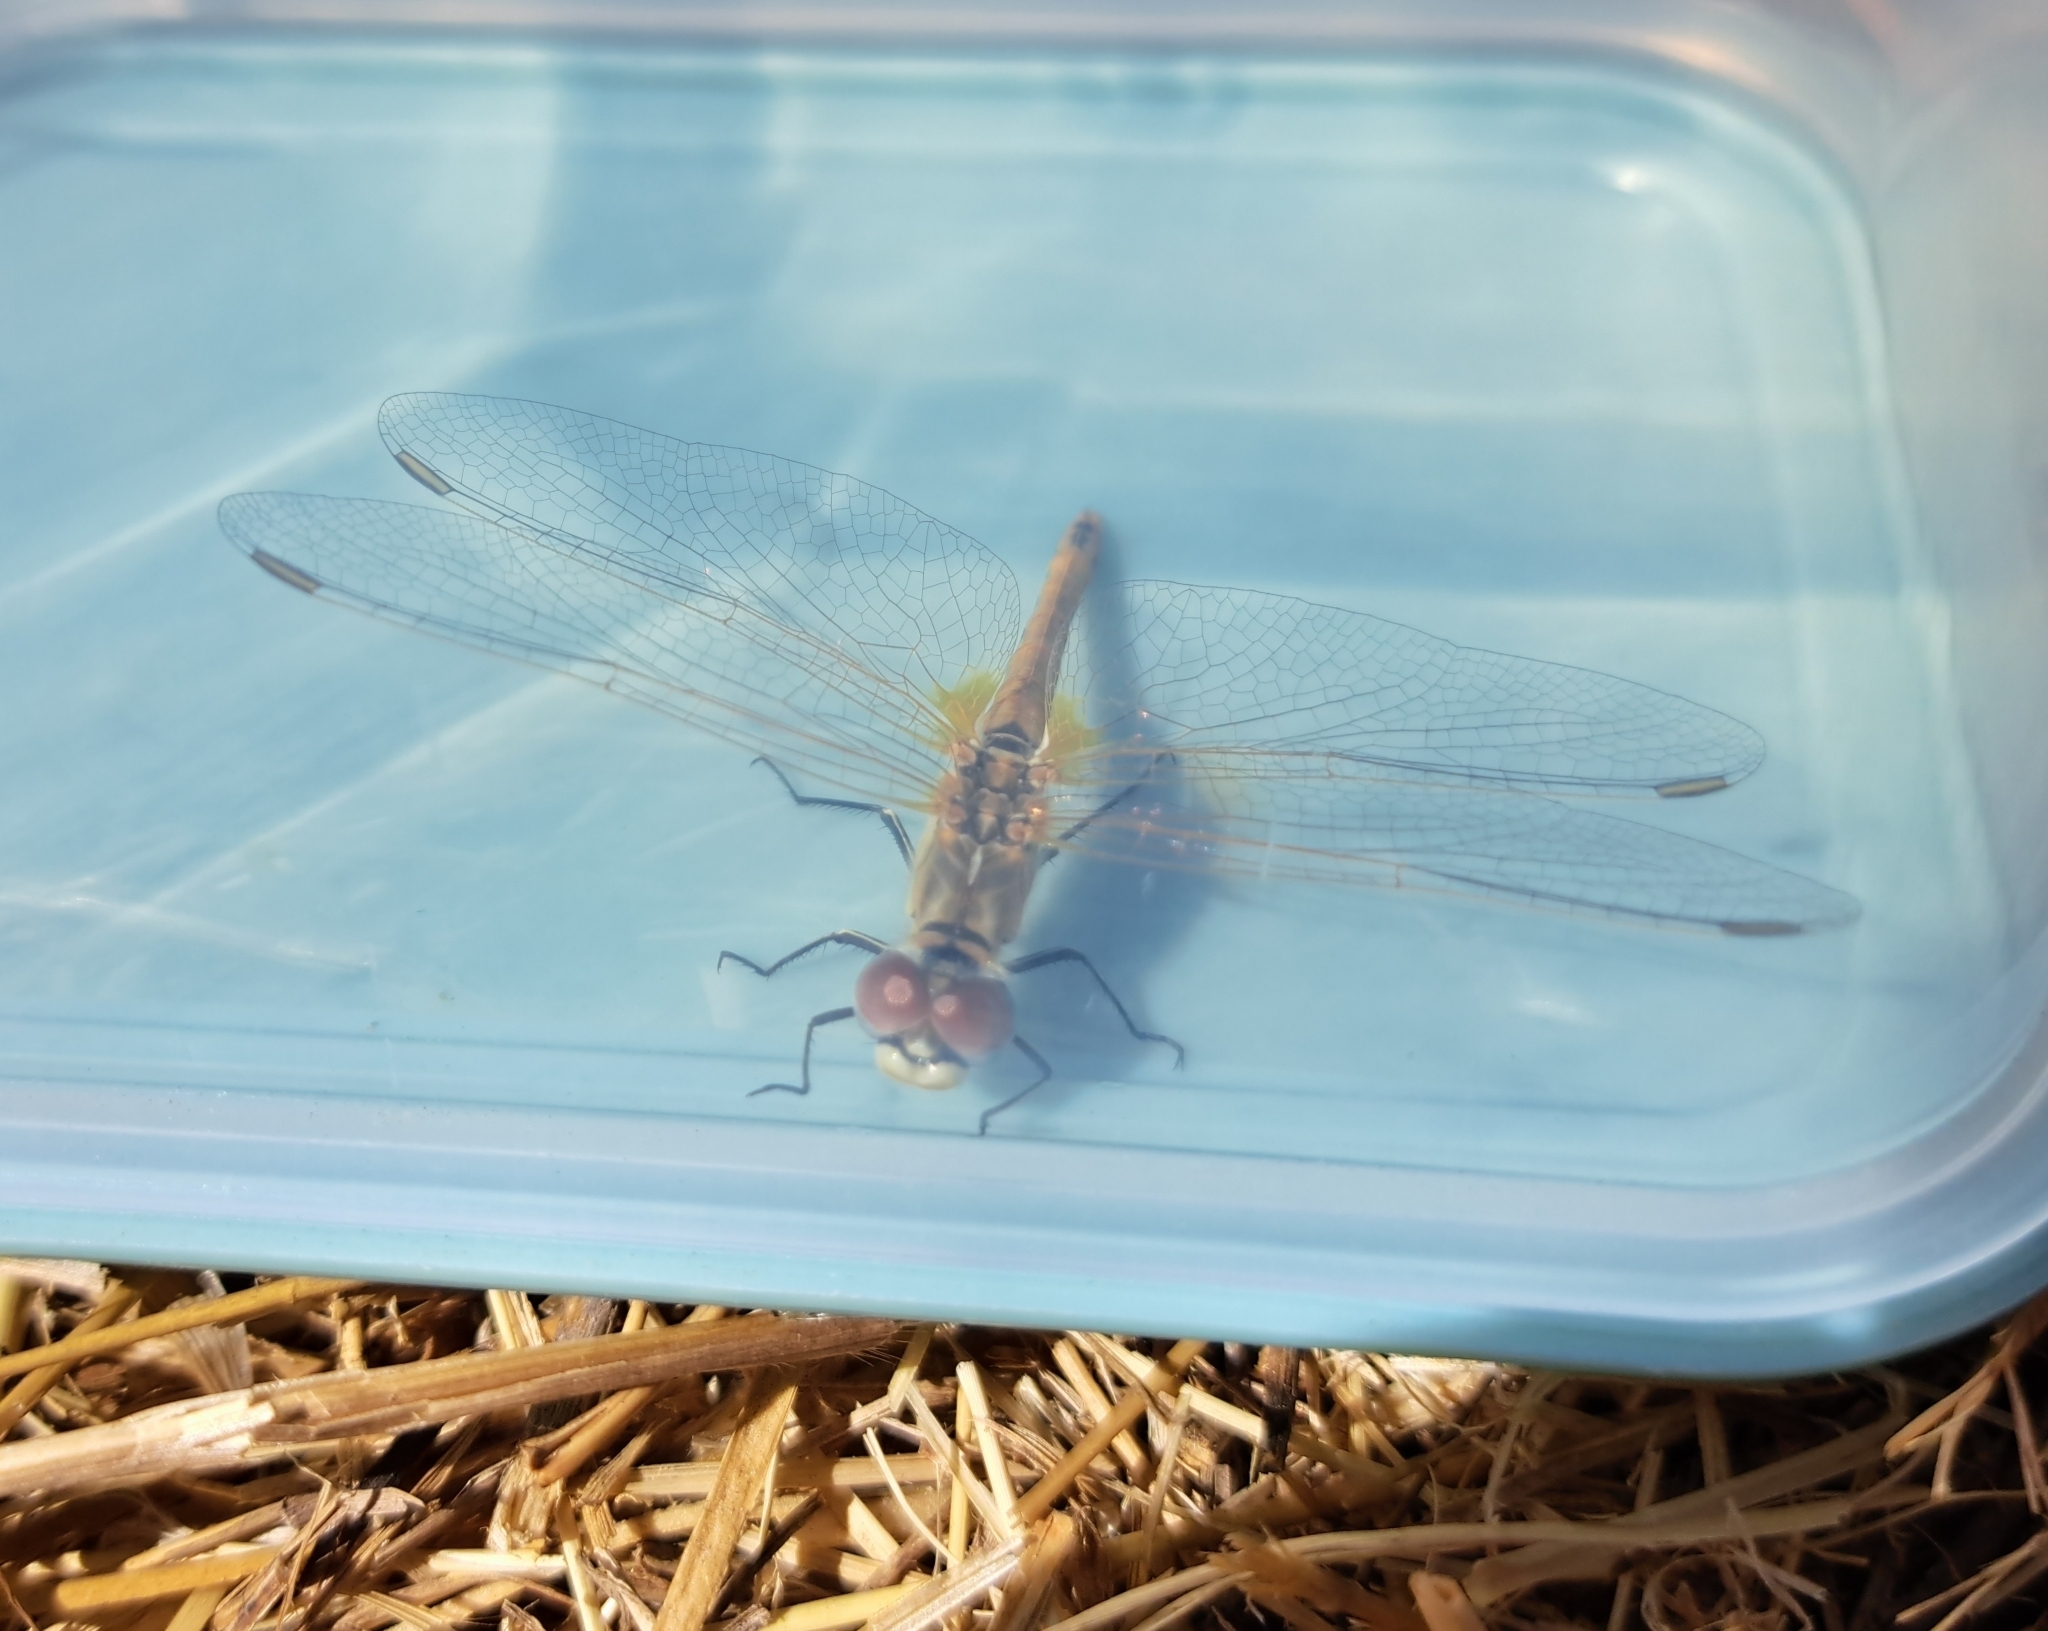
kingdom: Animalia
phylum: Arthropoda
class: Insecta
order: Odonata
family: Libellulidae
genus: Sympetrum
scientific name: Sympetrum fonscolombii
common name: Red-veined darter
